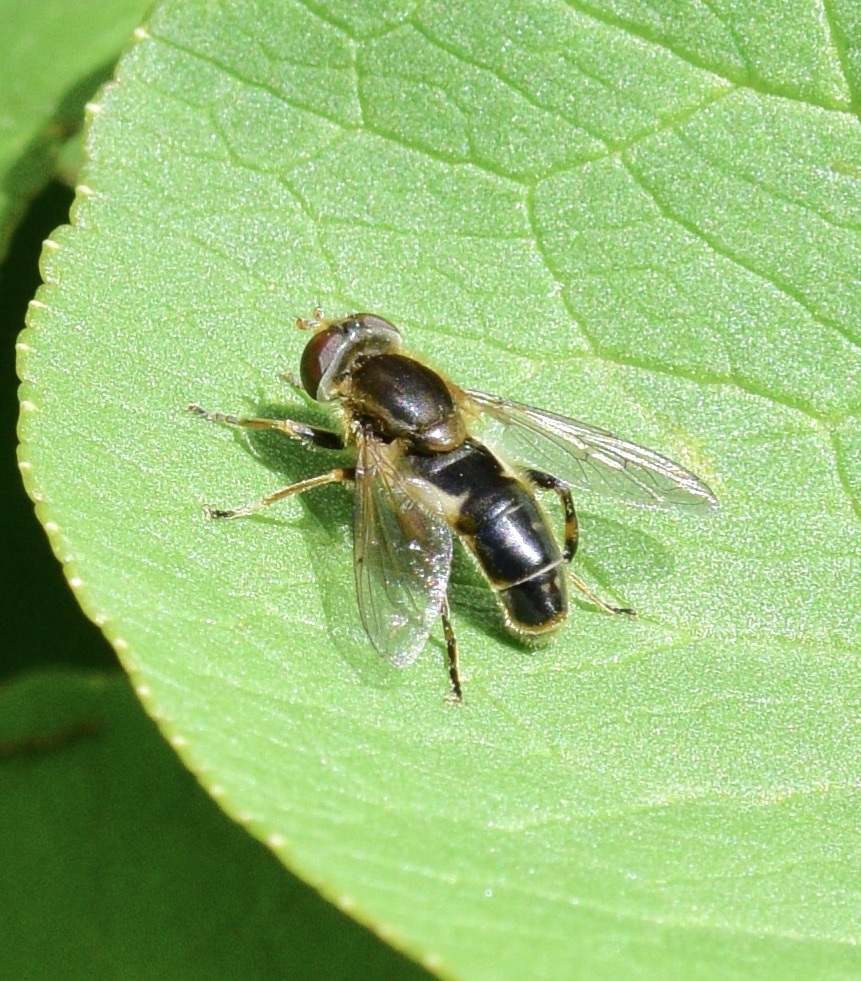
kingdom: Animalia
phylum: Arthropoda
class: Insecta
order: Diptera
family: Syrphidae
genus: Anasimyia
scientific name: Anasimyia bilinearis
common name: Two-lined swamp fly
